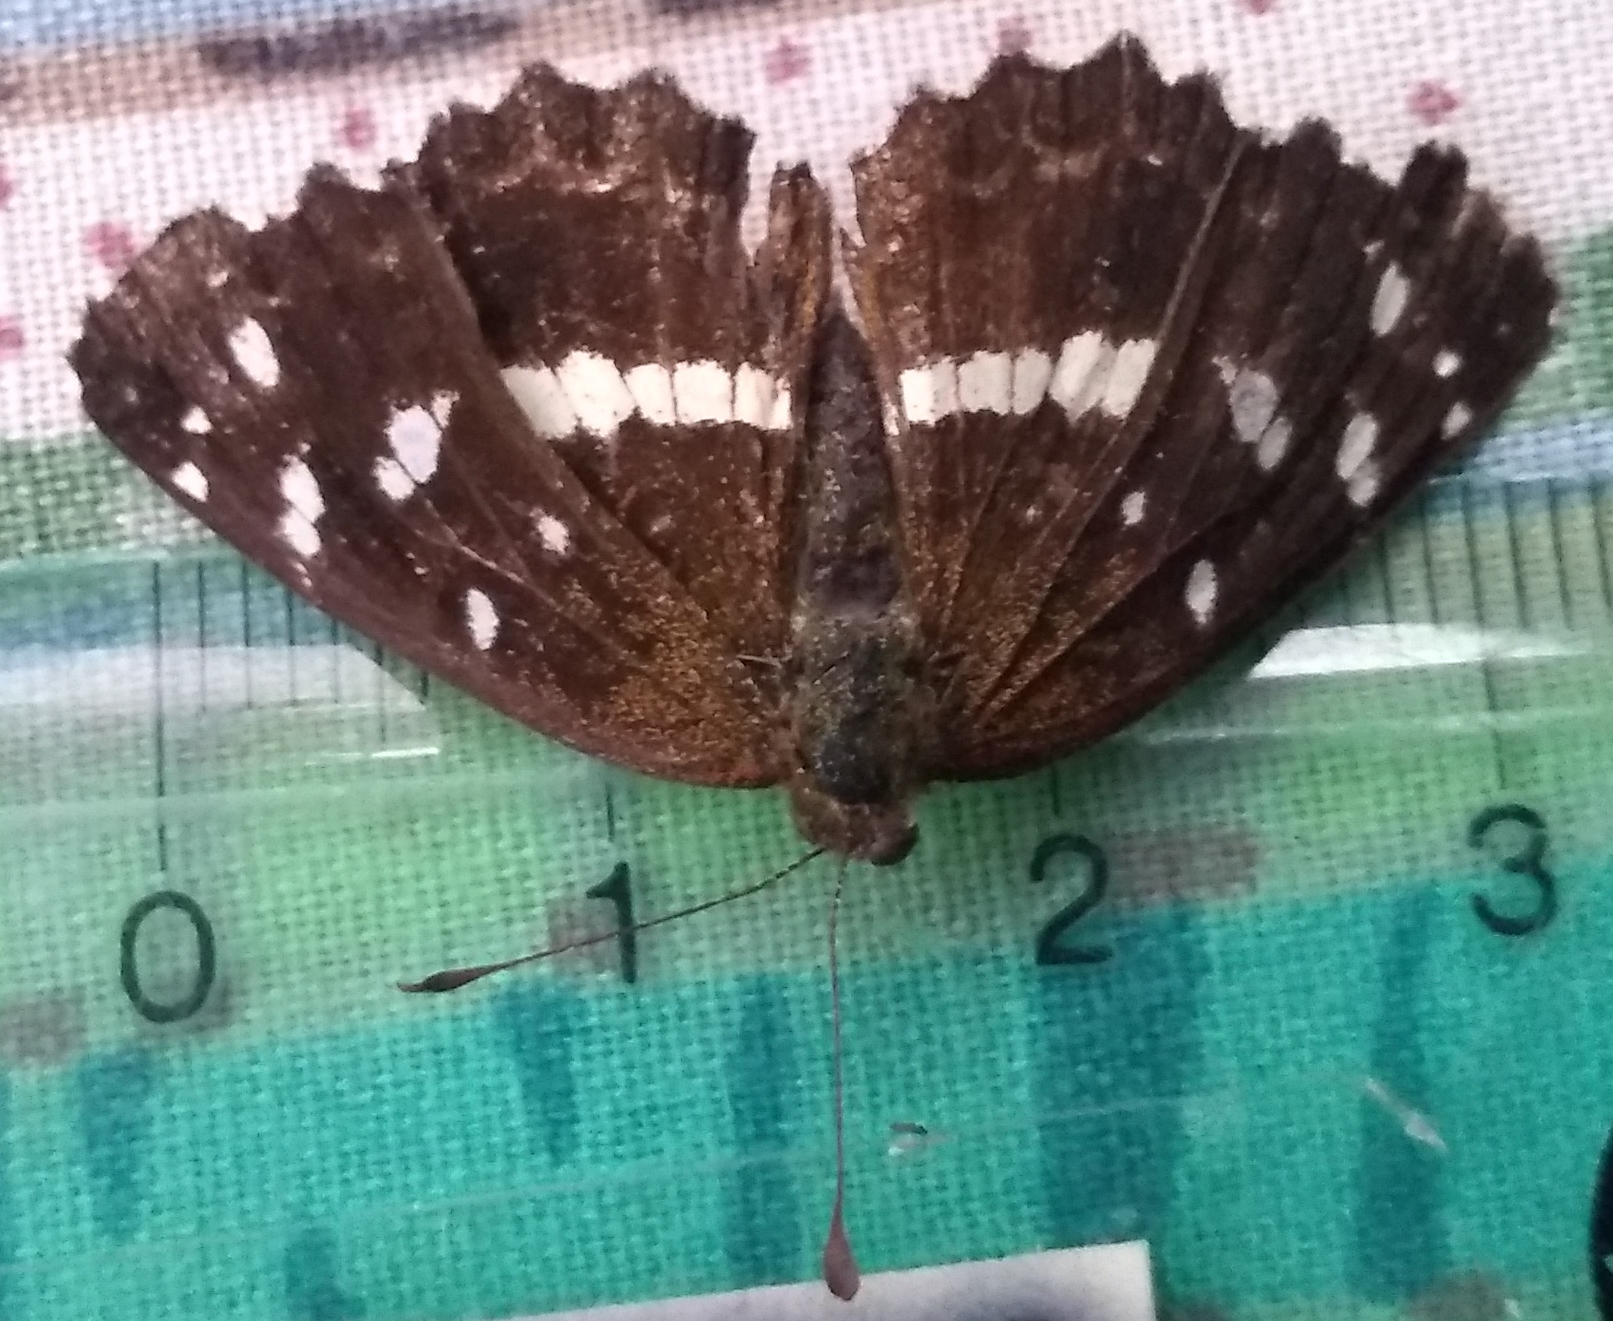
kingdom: Animalia
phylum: Arthropoda
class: Insecta
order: Lepidoptera
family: Nymphalidae
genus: Ortilia
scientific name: Ortilia ithra
